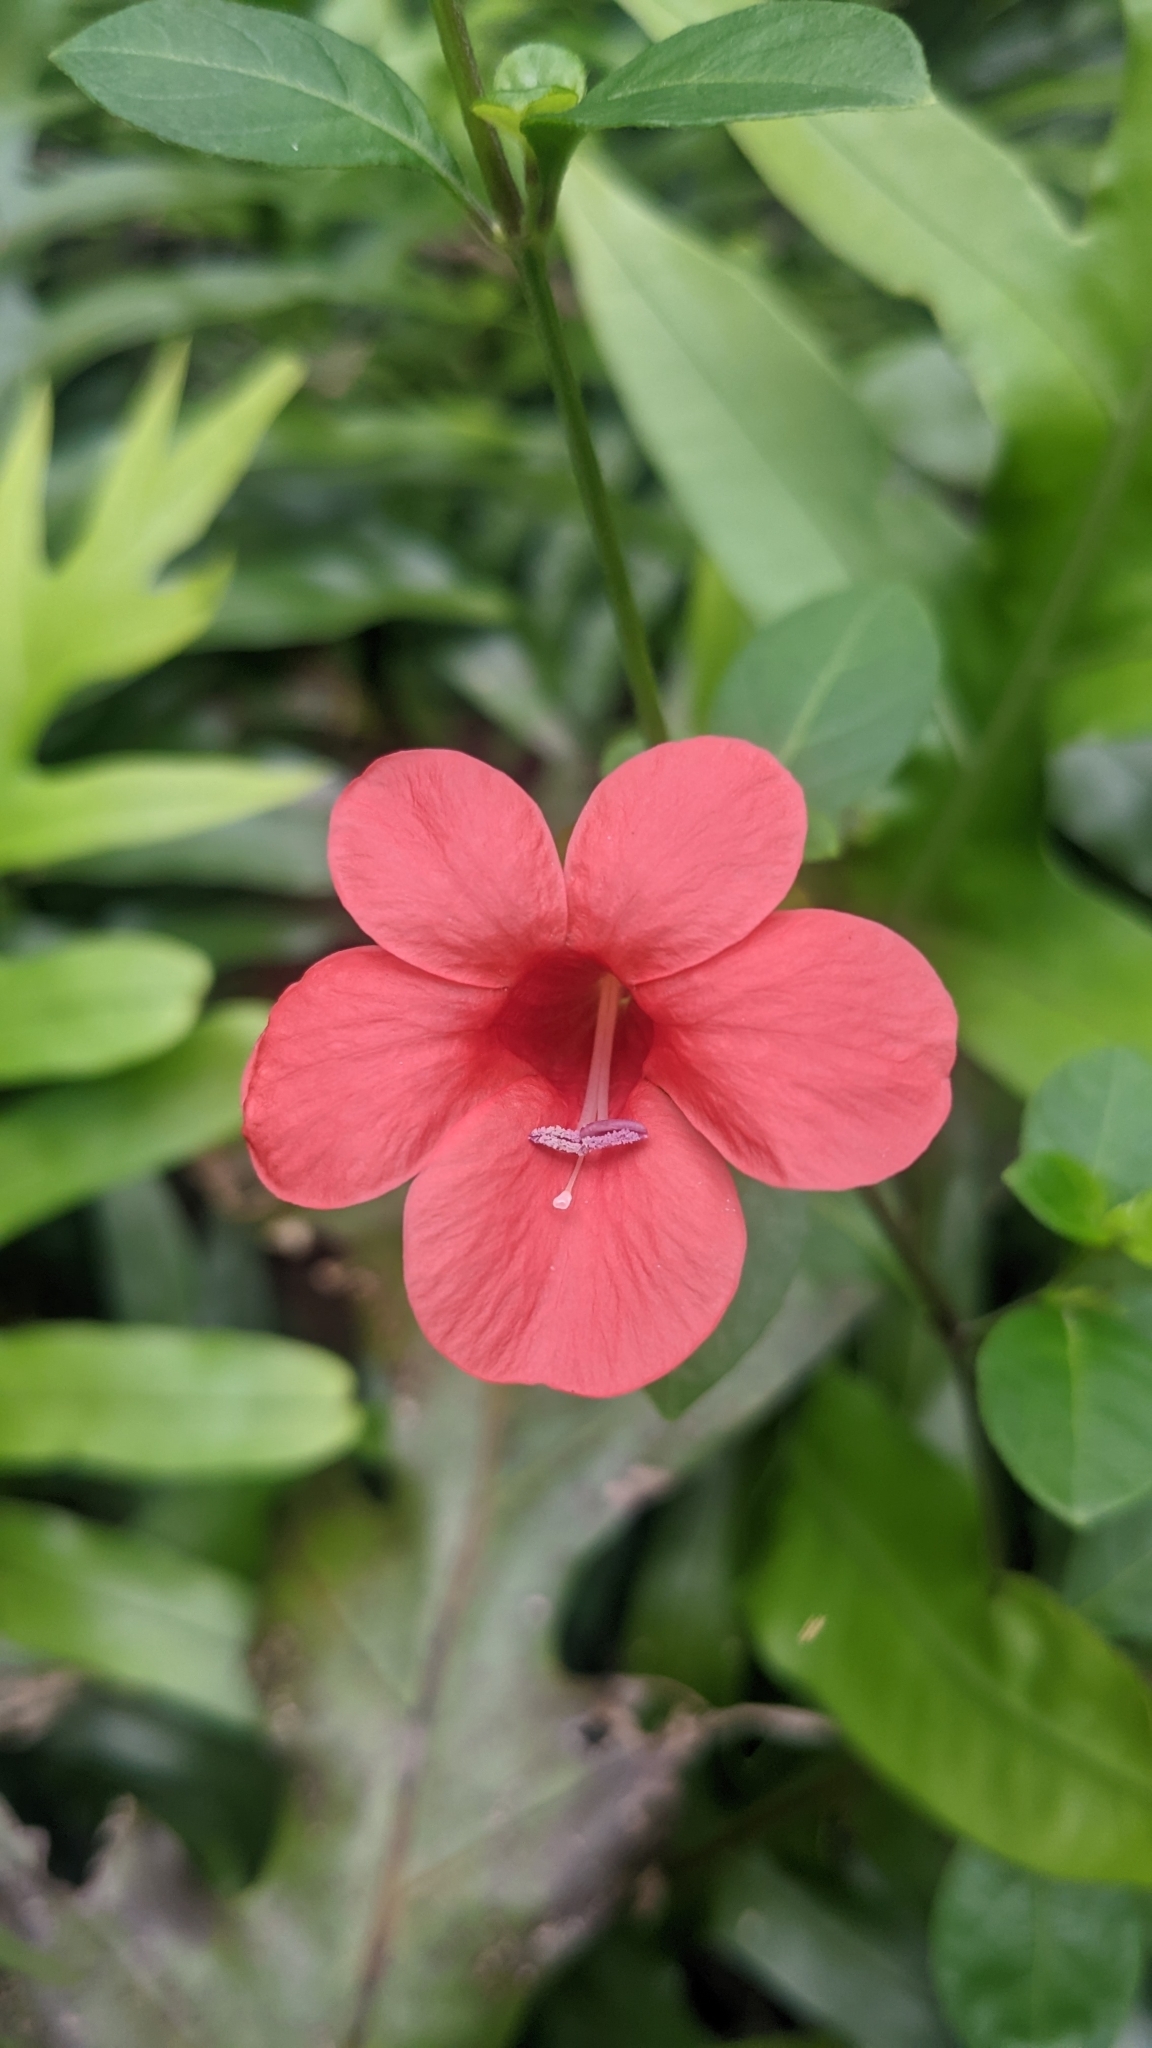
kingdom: Plantae
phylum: Tracheophyta
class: Magnoliopsida
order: Lamiales
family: Acanthaceae
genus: Barleria
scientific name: Barleria repens
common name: Pink-ruellia
